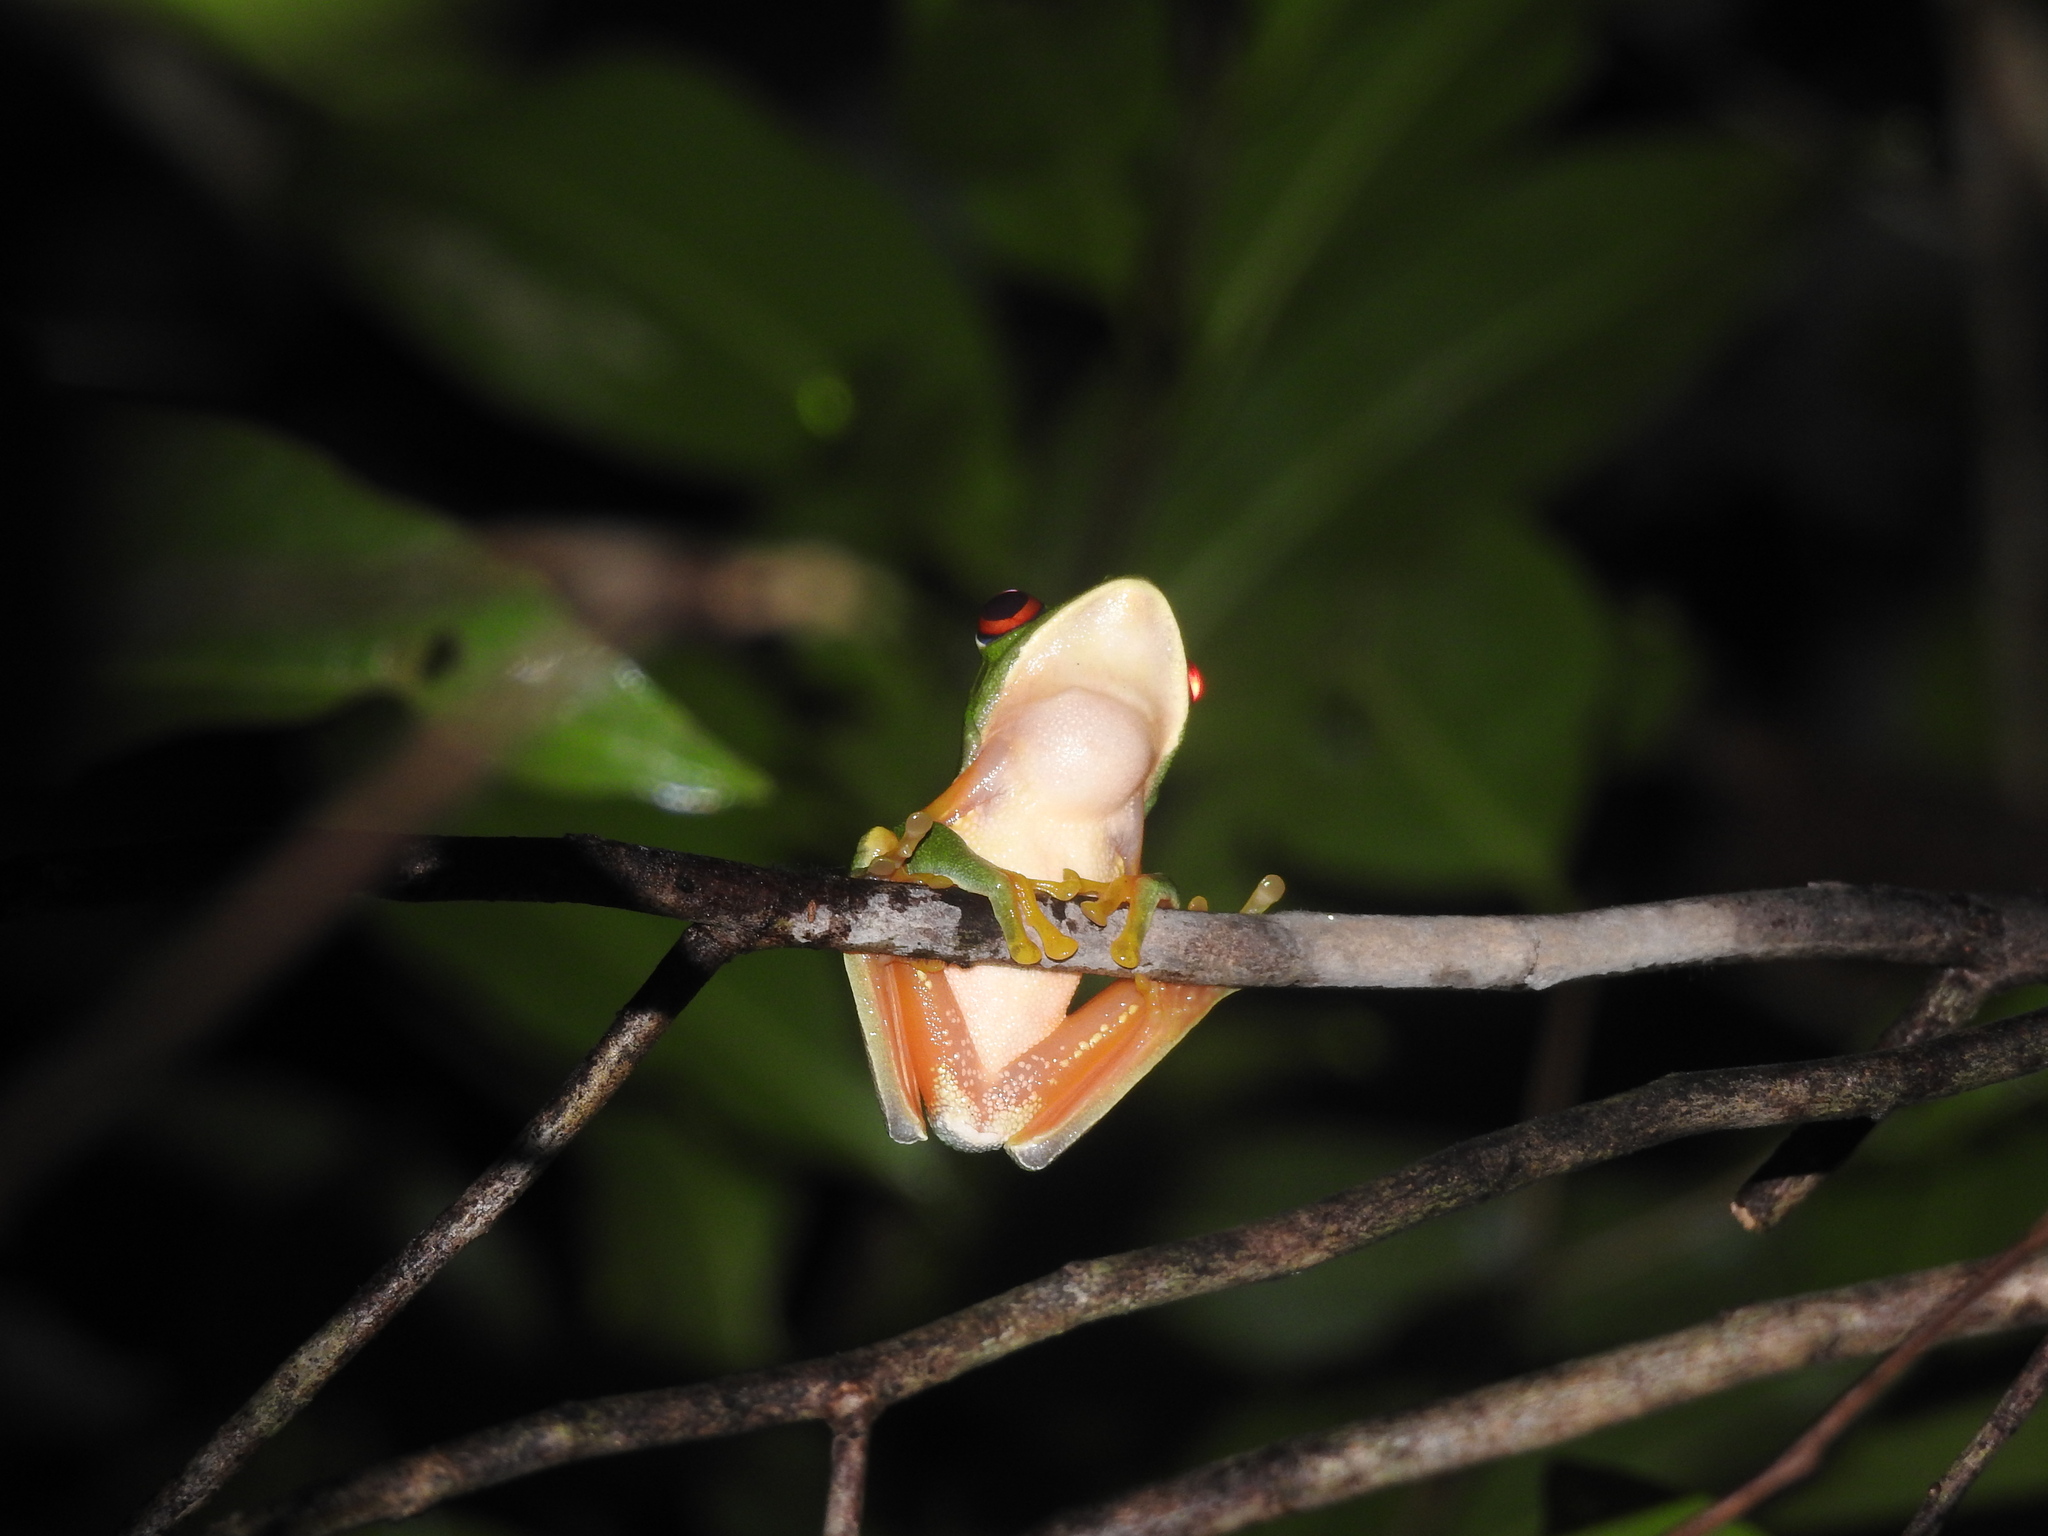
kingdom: Animalia
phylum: Chordata
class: Amphibia
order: Anura
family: Phyllomedusidae
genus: Agalychnis
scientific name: Agalychnis
